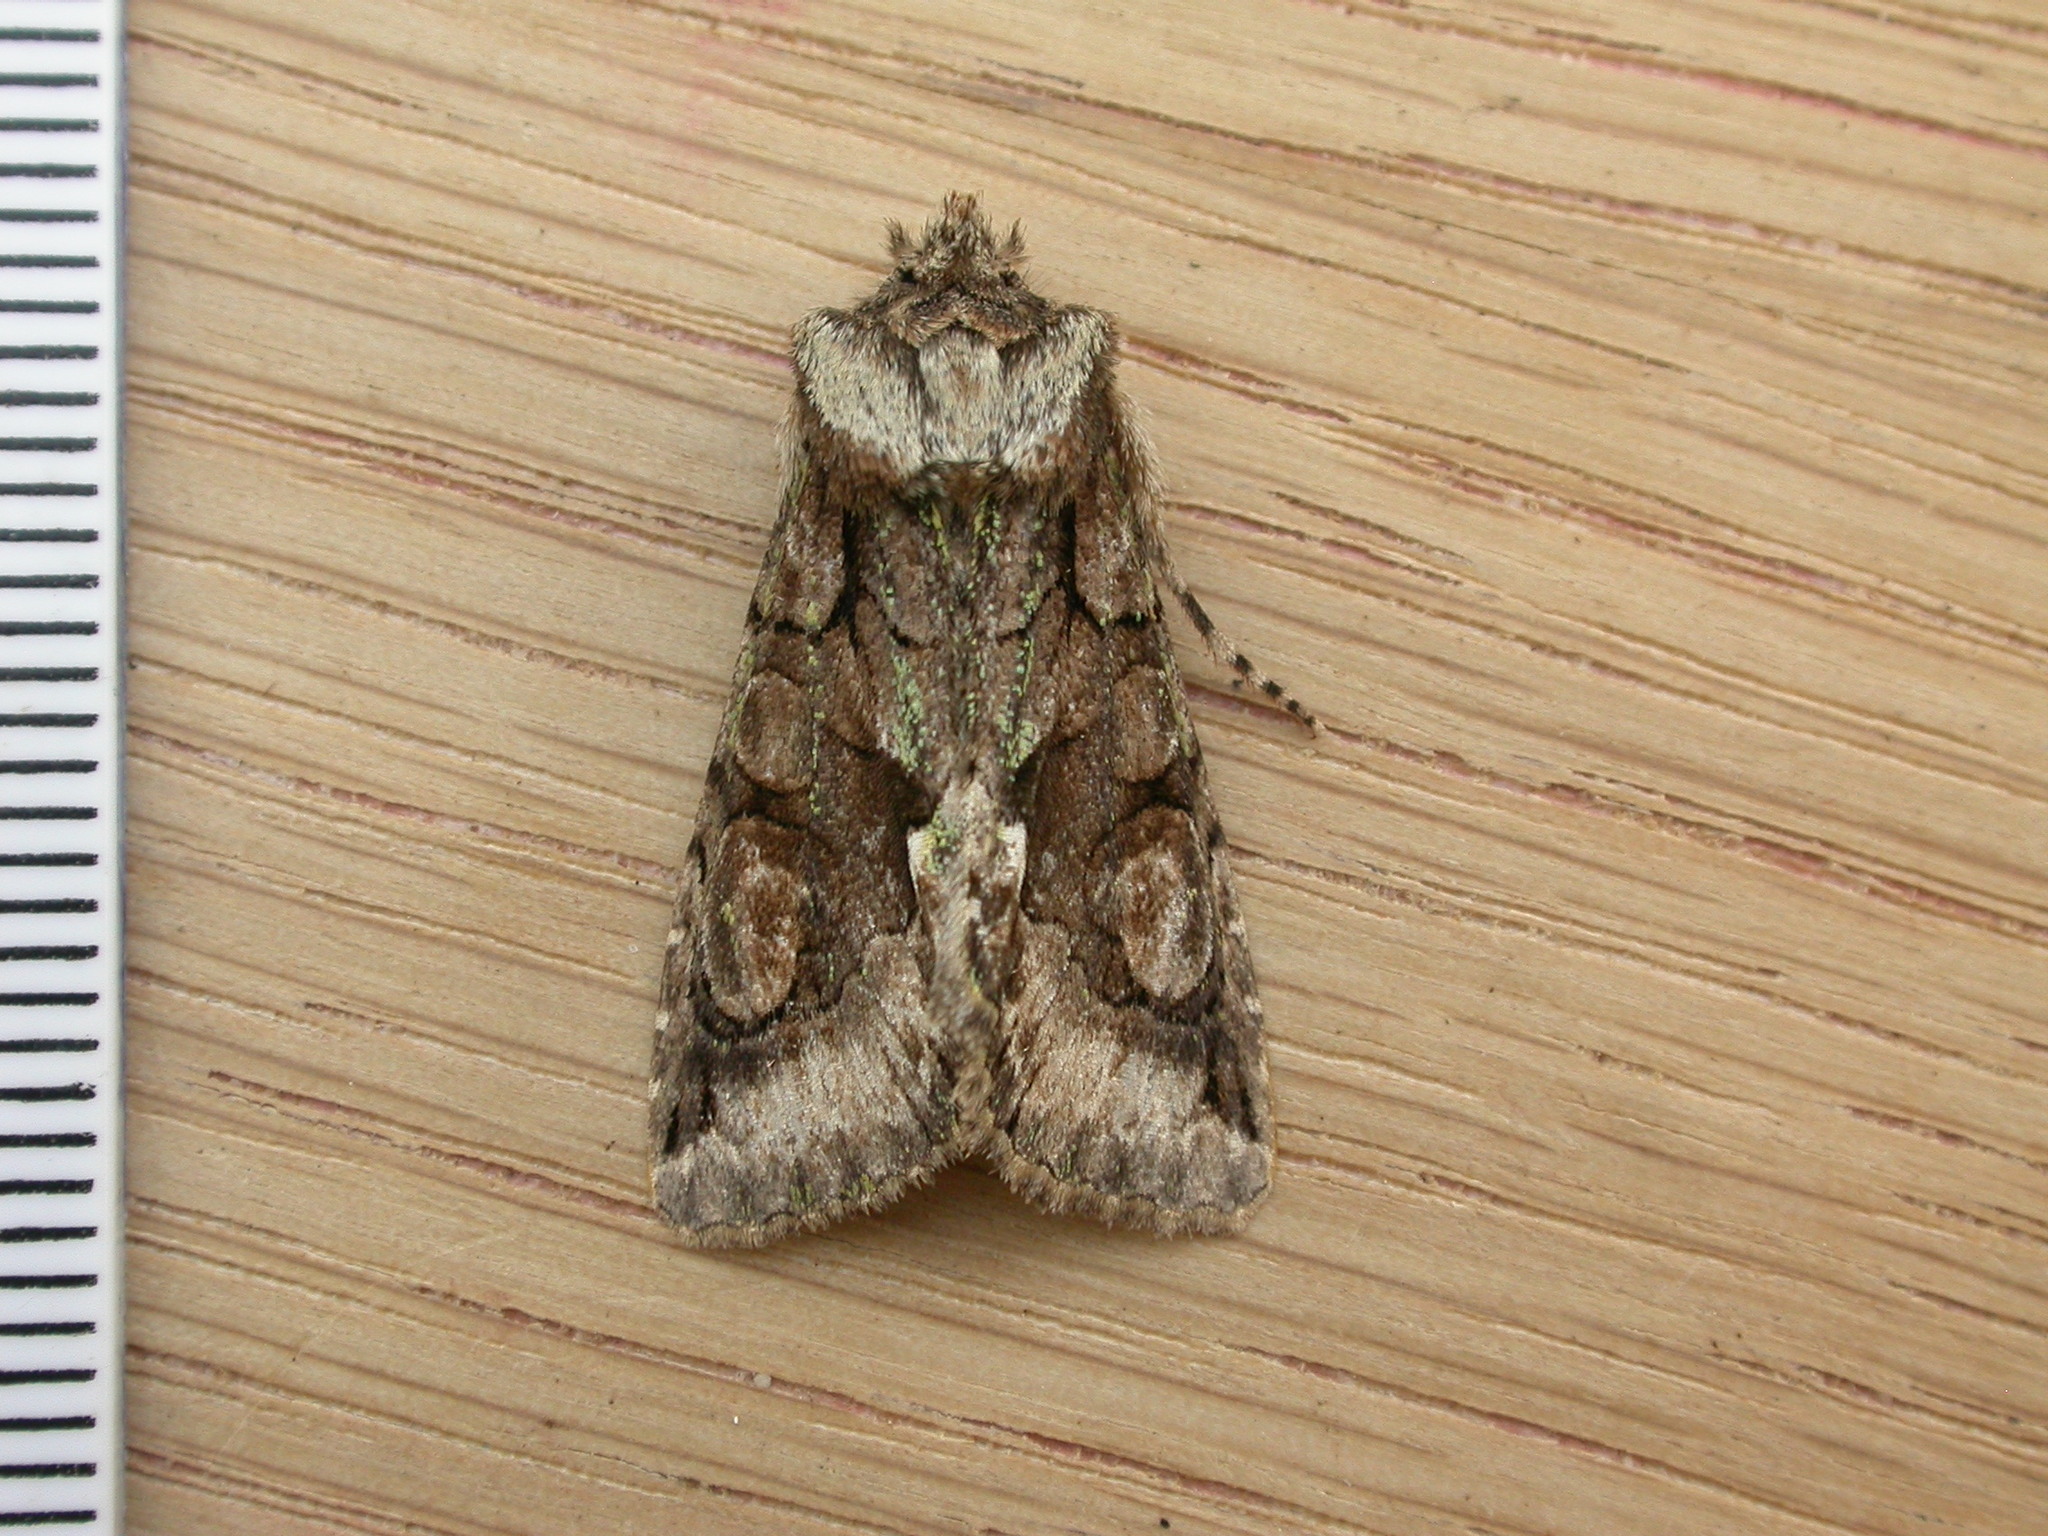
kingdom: Animalia
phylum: Arthropoda
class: Insecta
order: Lepidoptera
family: Noctuidae
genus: Allophyes
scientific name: Allophyes oxyacanthae
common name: Green-brindled crescent
